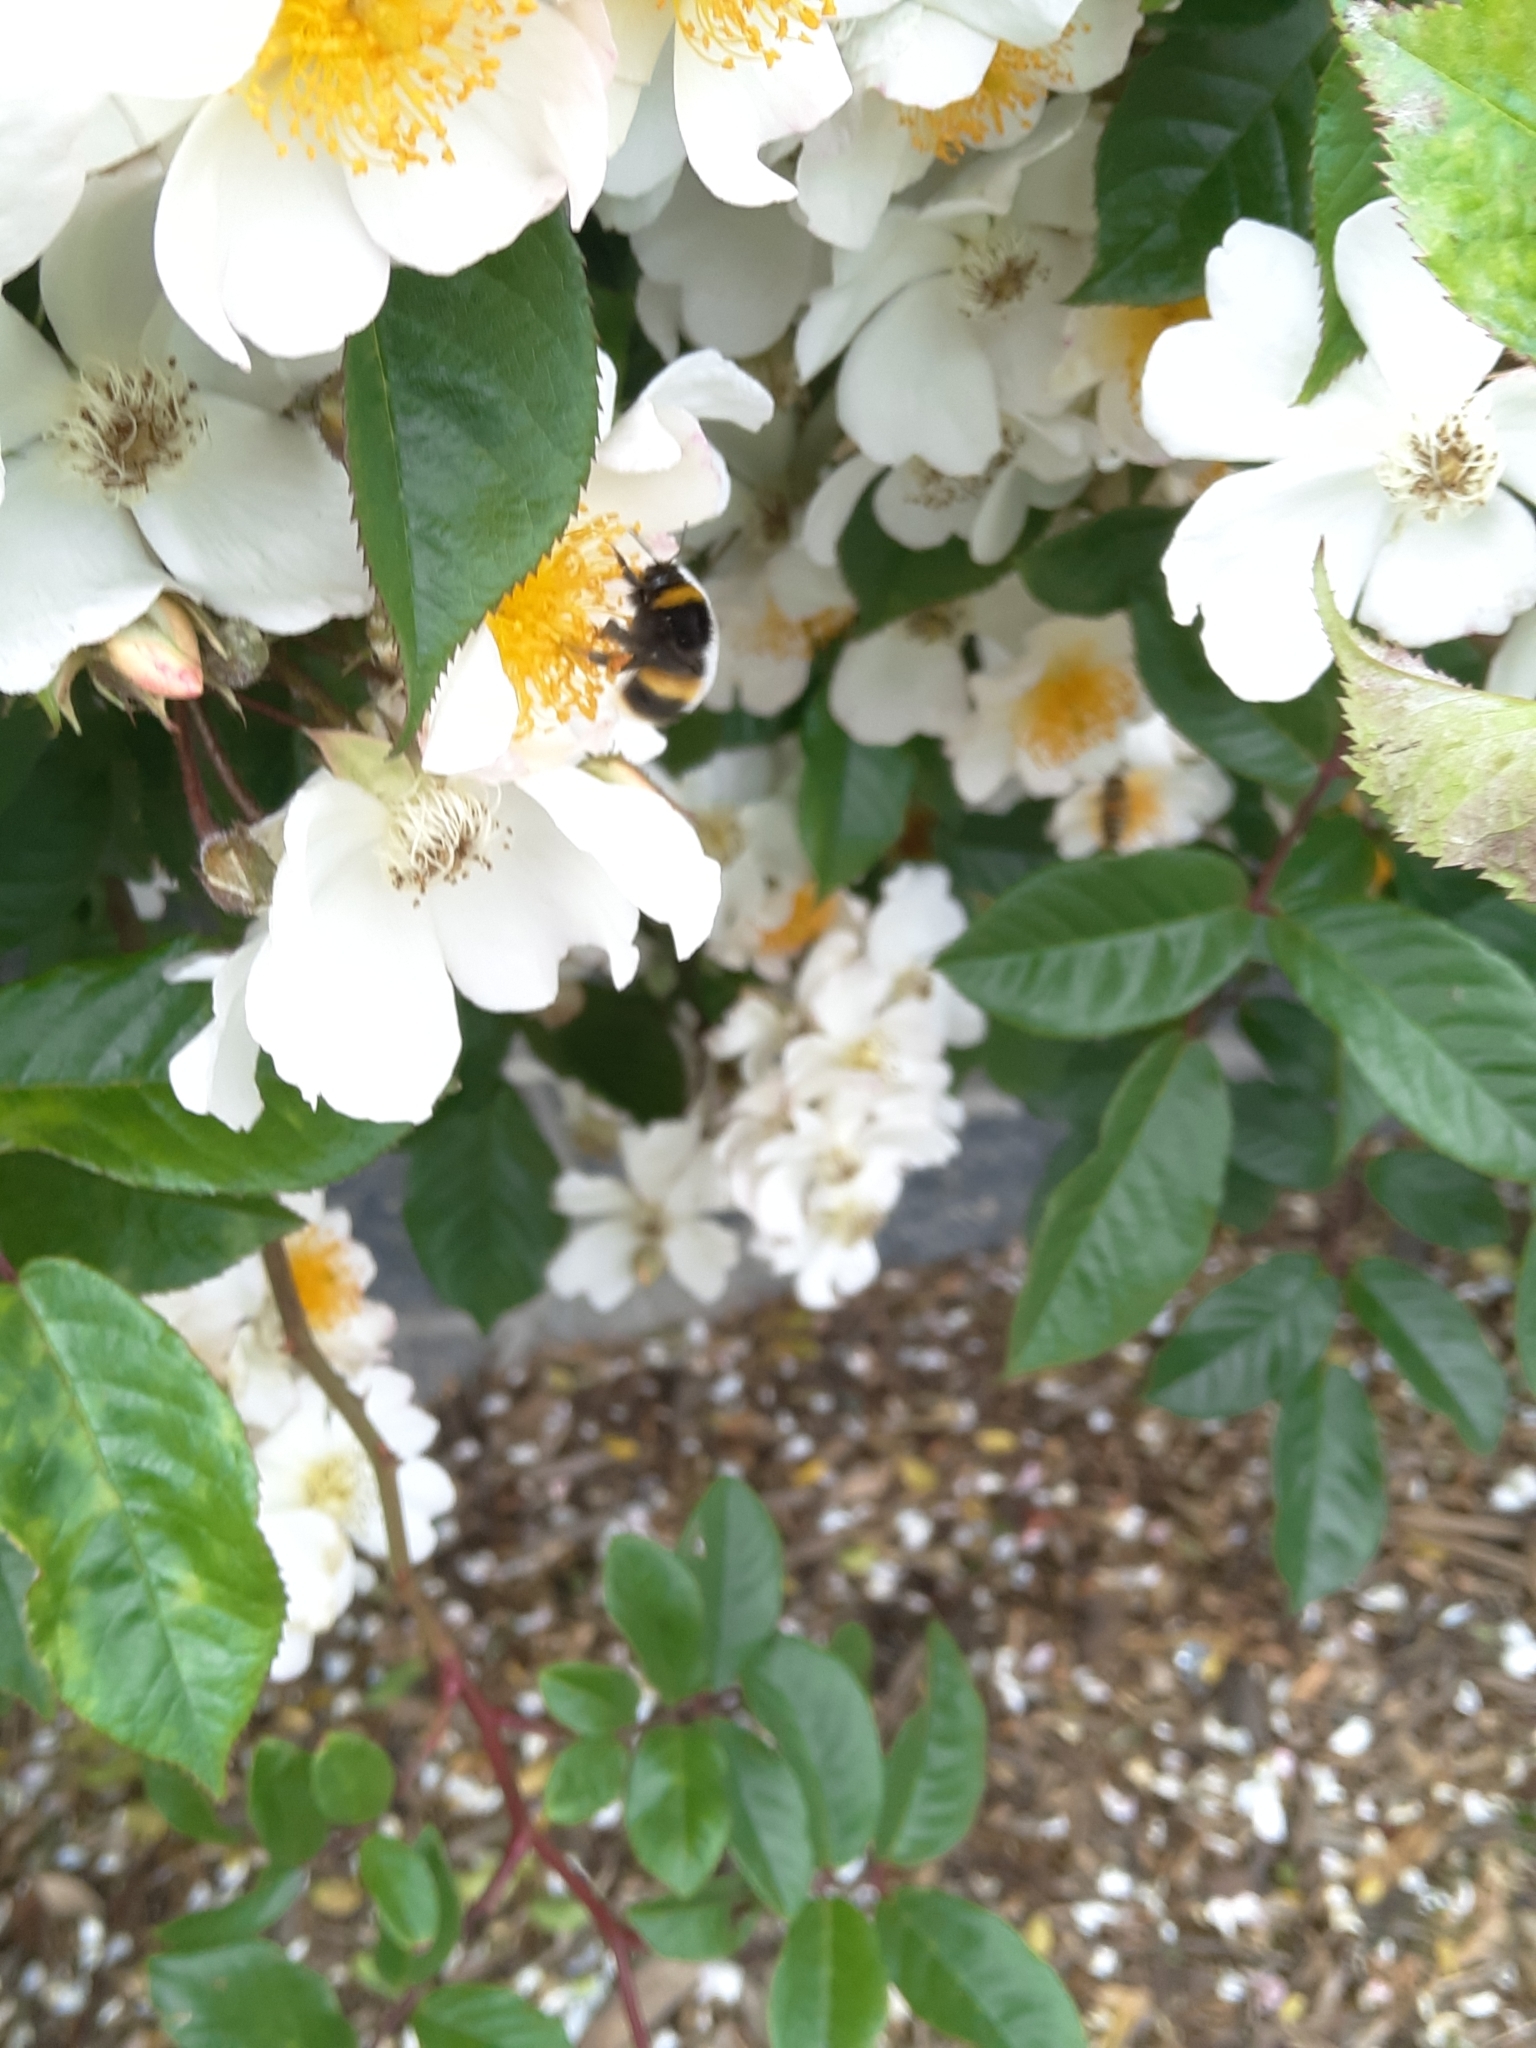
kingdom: Animalia
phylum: Arthropoda
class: Insecta
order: Hymenoptera
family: Apidae
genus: Bombus
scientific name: Bombus terrestris
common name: Buff-tailed bumblebee
